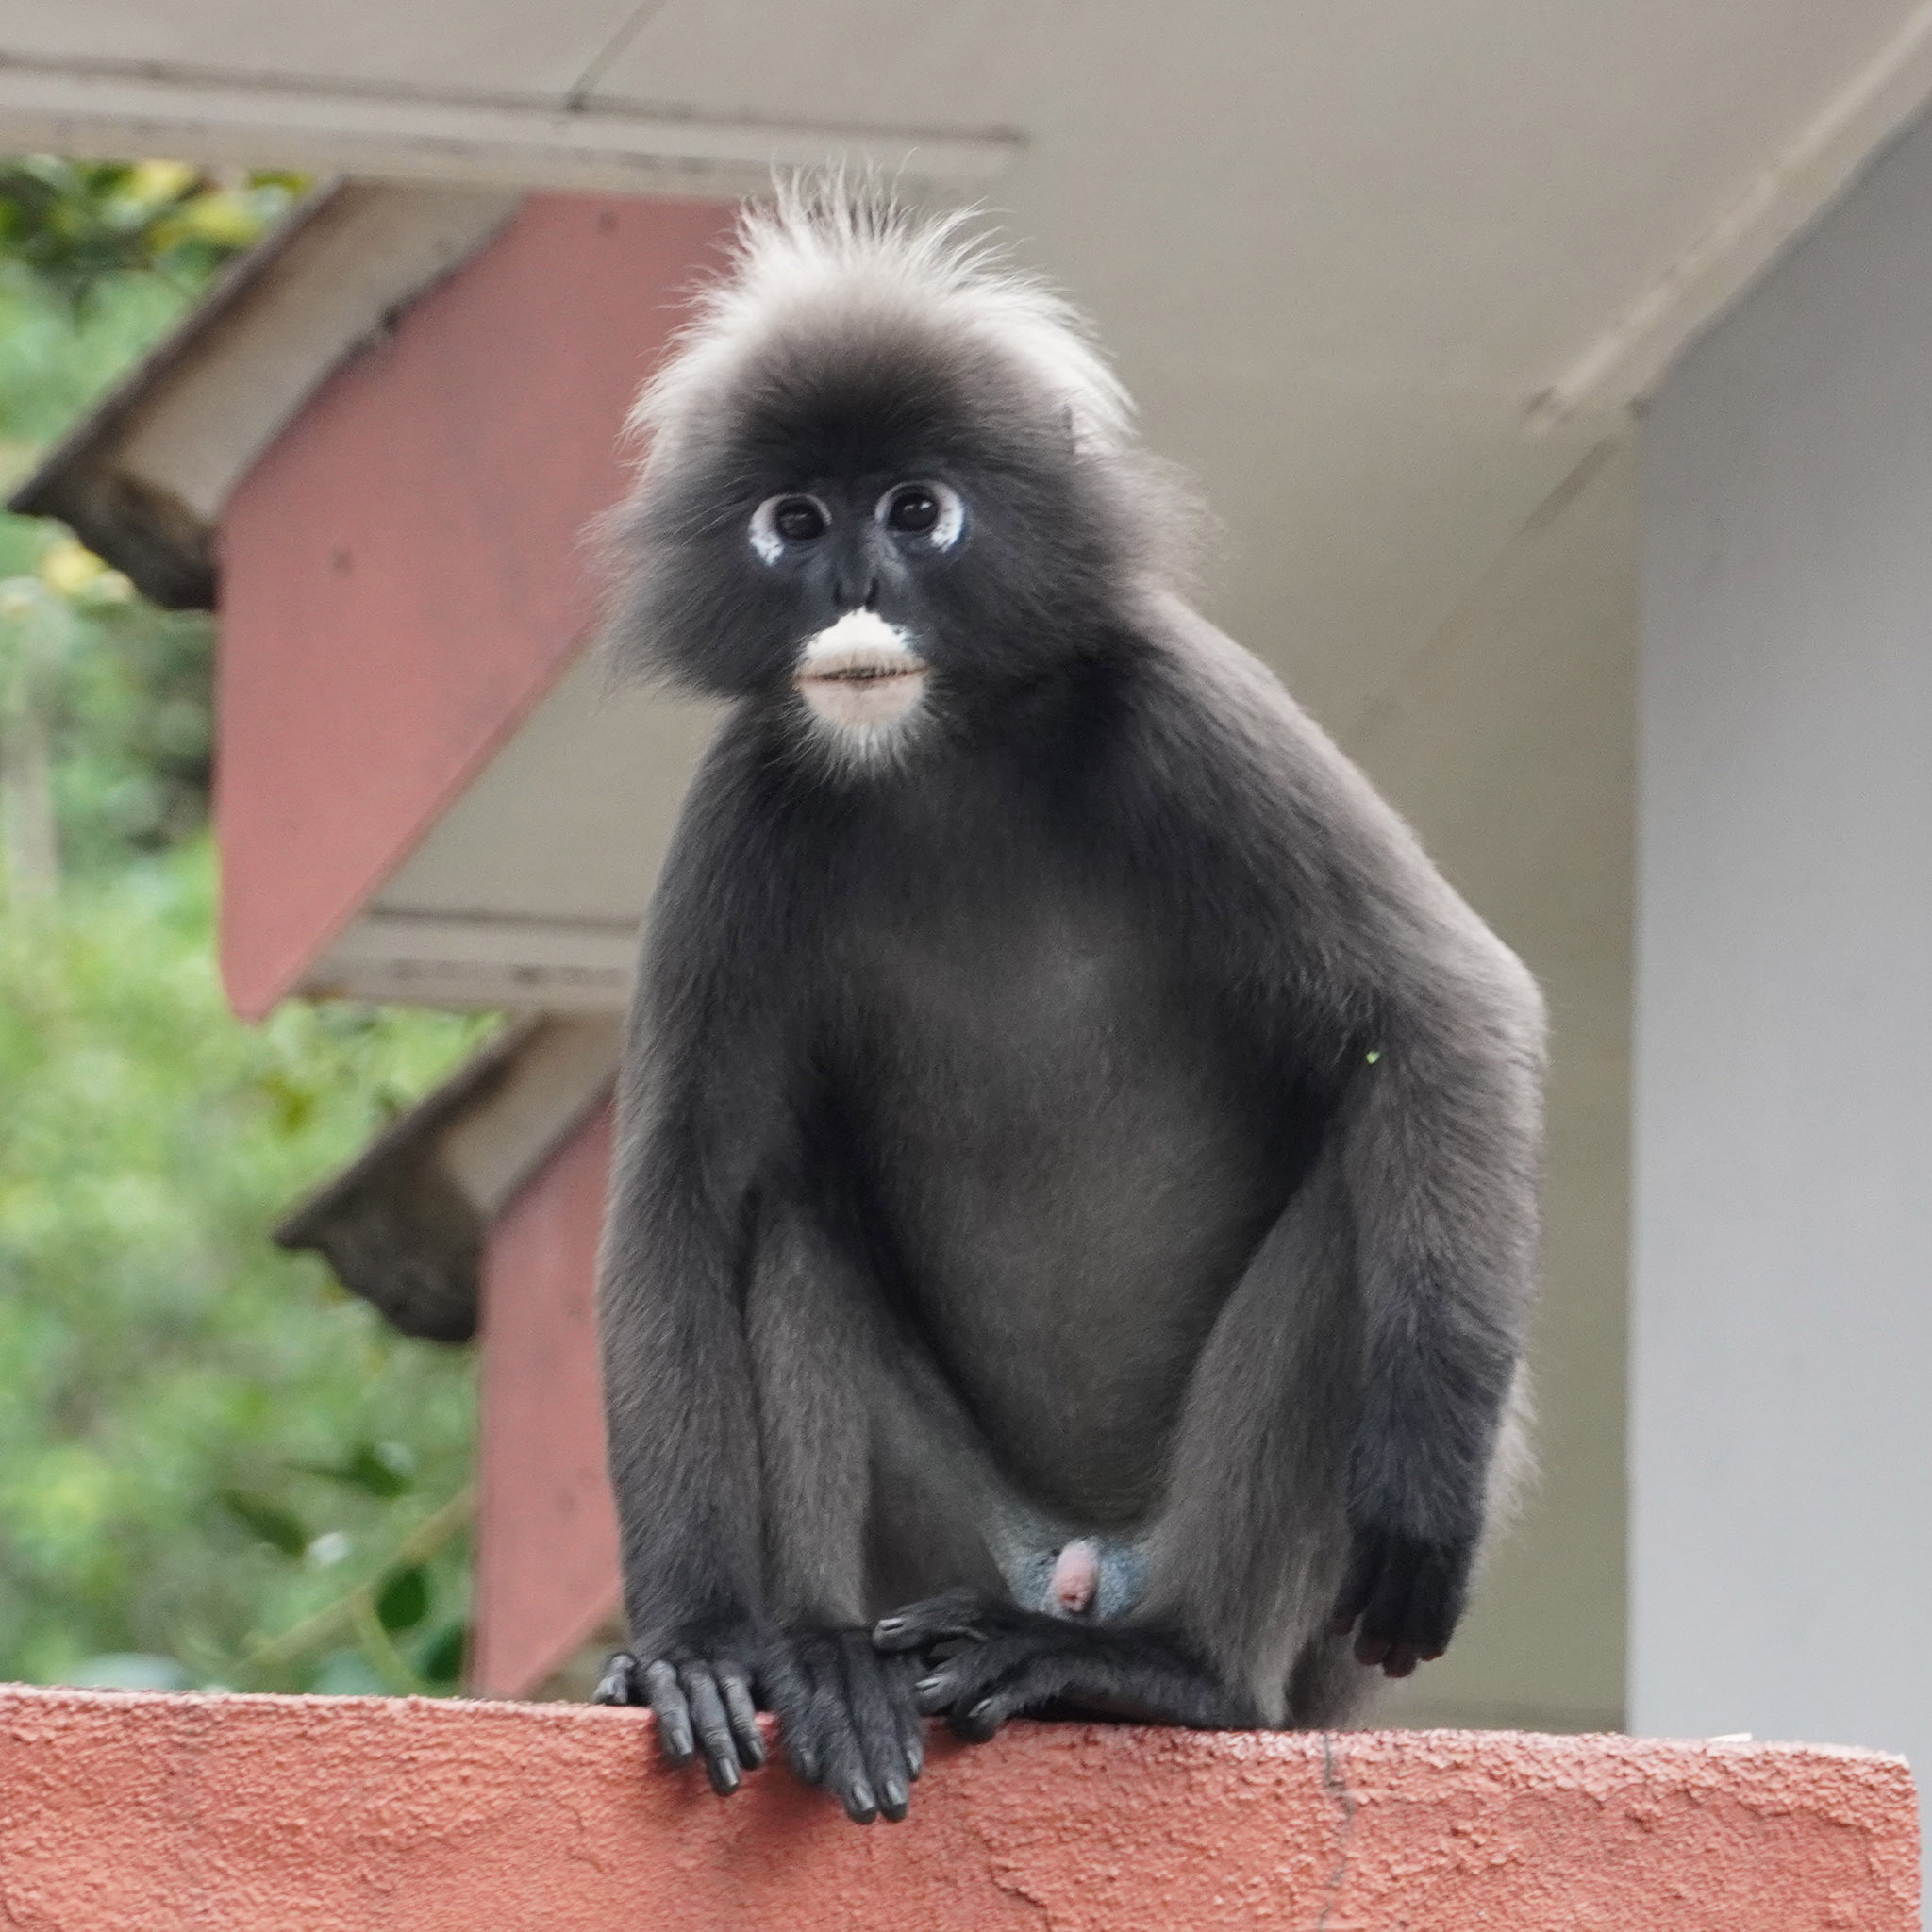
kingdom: Animalia
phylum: Chordata
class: Mammalia
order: Primates
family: Cercopithecidae
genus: Trachypithecus
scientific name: Trachypithecus obscurus
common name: Dusky leaf-monkey
